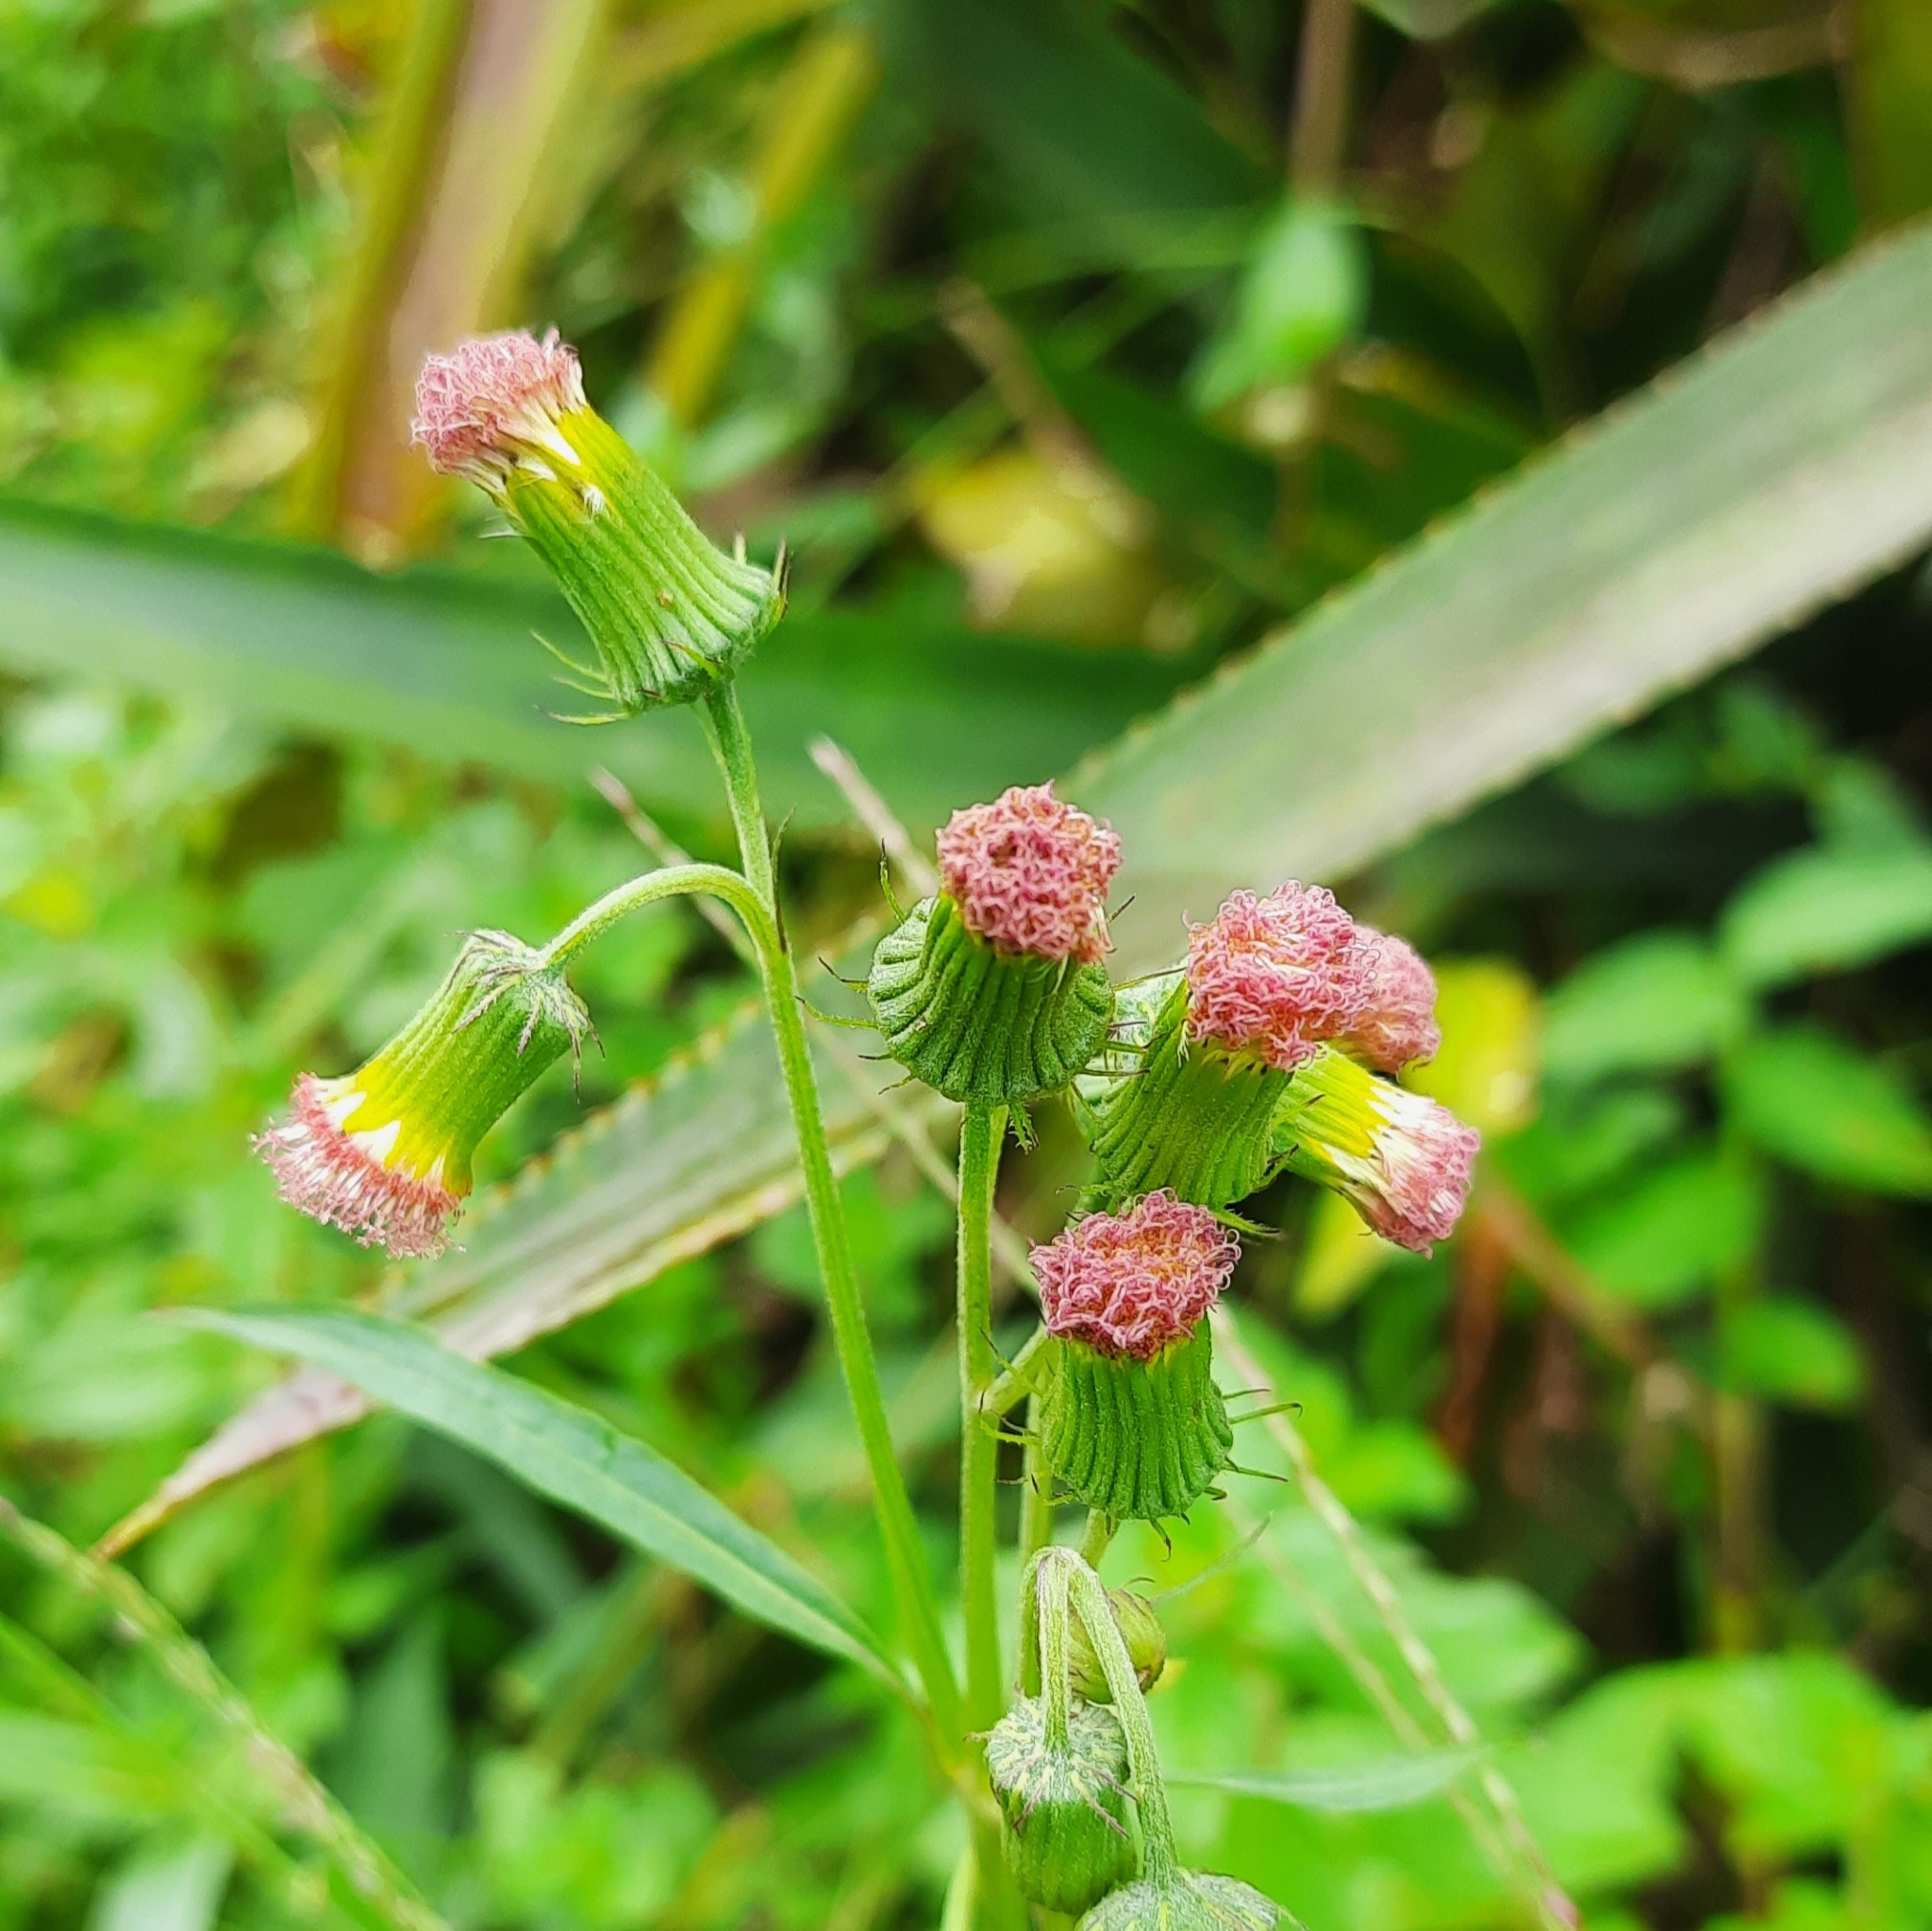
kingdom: Plantae
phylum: Tracheophyta
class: Magnoliopsida
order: Asterales
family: Asteraceae
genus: Crassocephalum
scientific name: Crassocephalum crepidioides
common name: Redflower ragleaf
